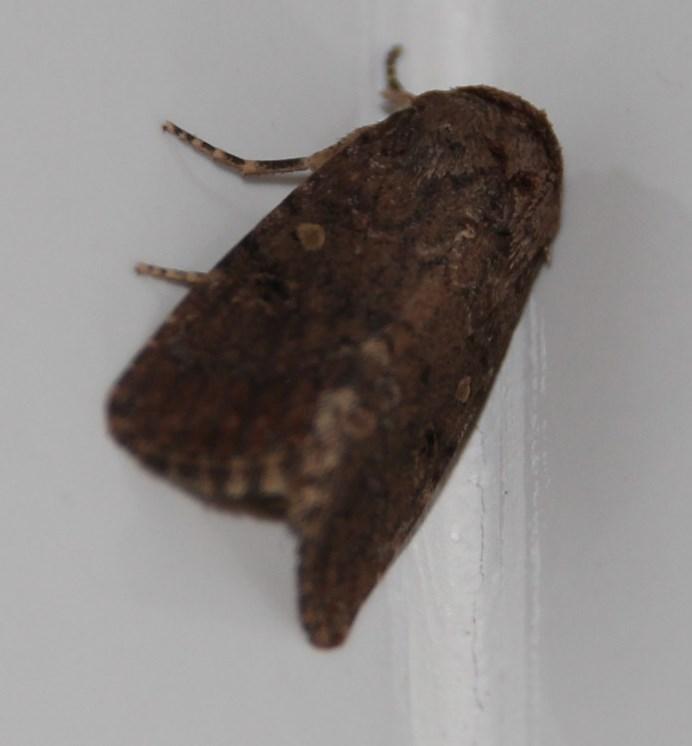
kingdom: Animalia
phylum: Arthropoda
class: Insecta
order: Lepidoptera
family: Noctuidae
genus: Spodoptera
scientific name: Spodoptera cilium
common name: Dark mottled willow
